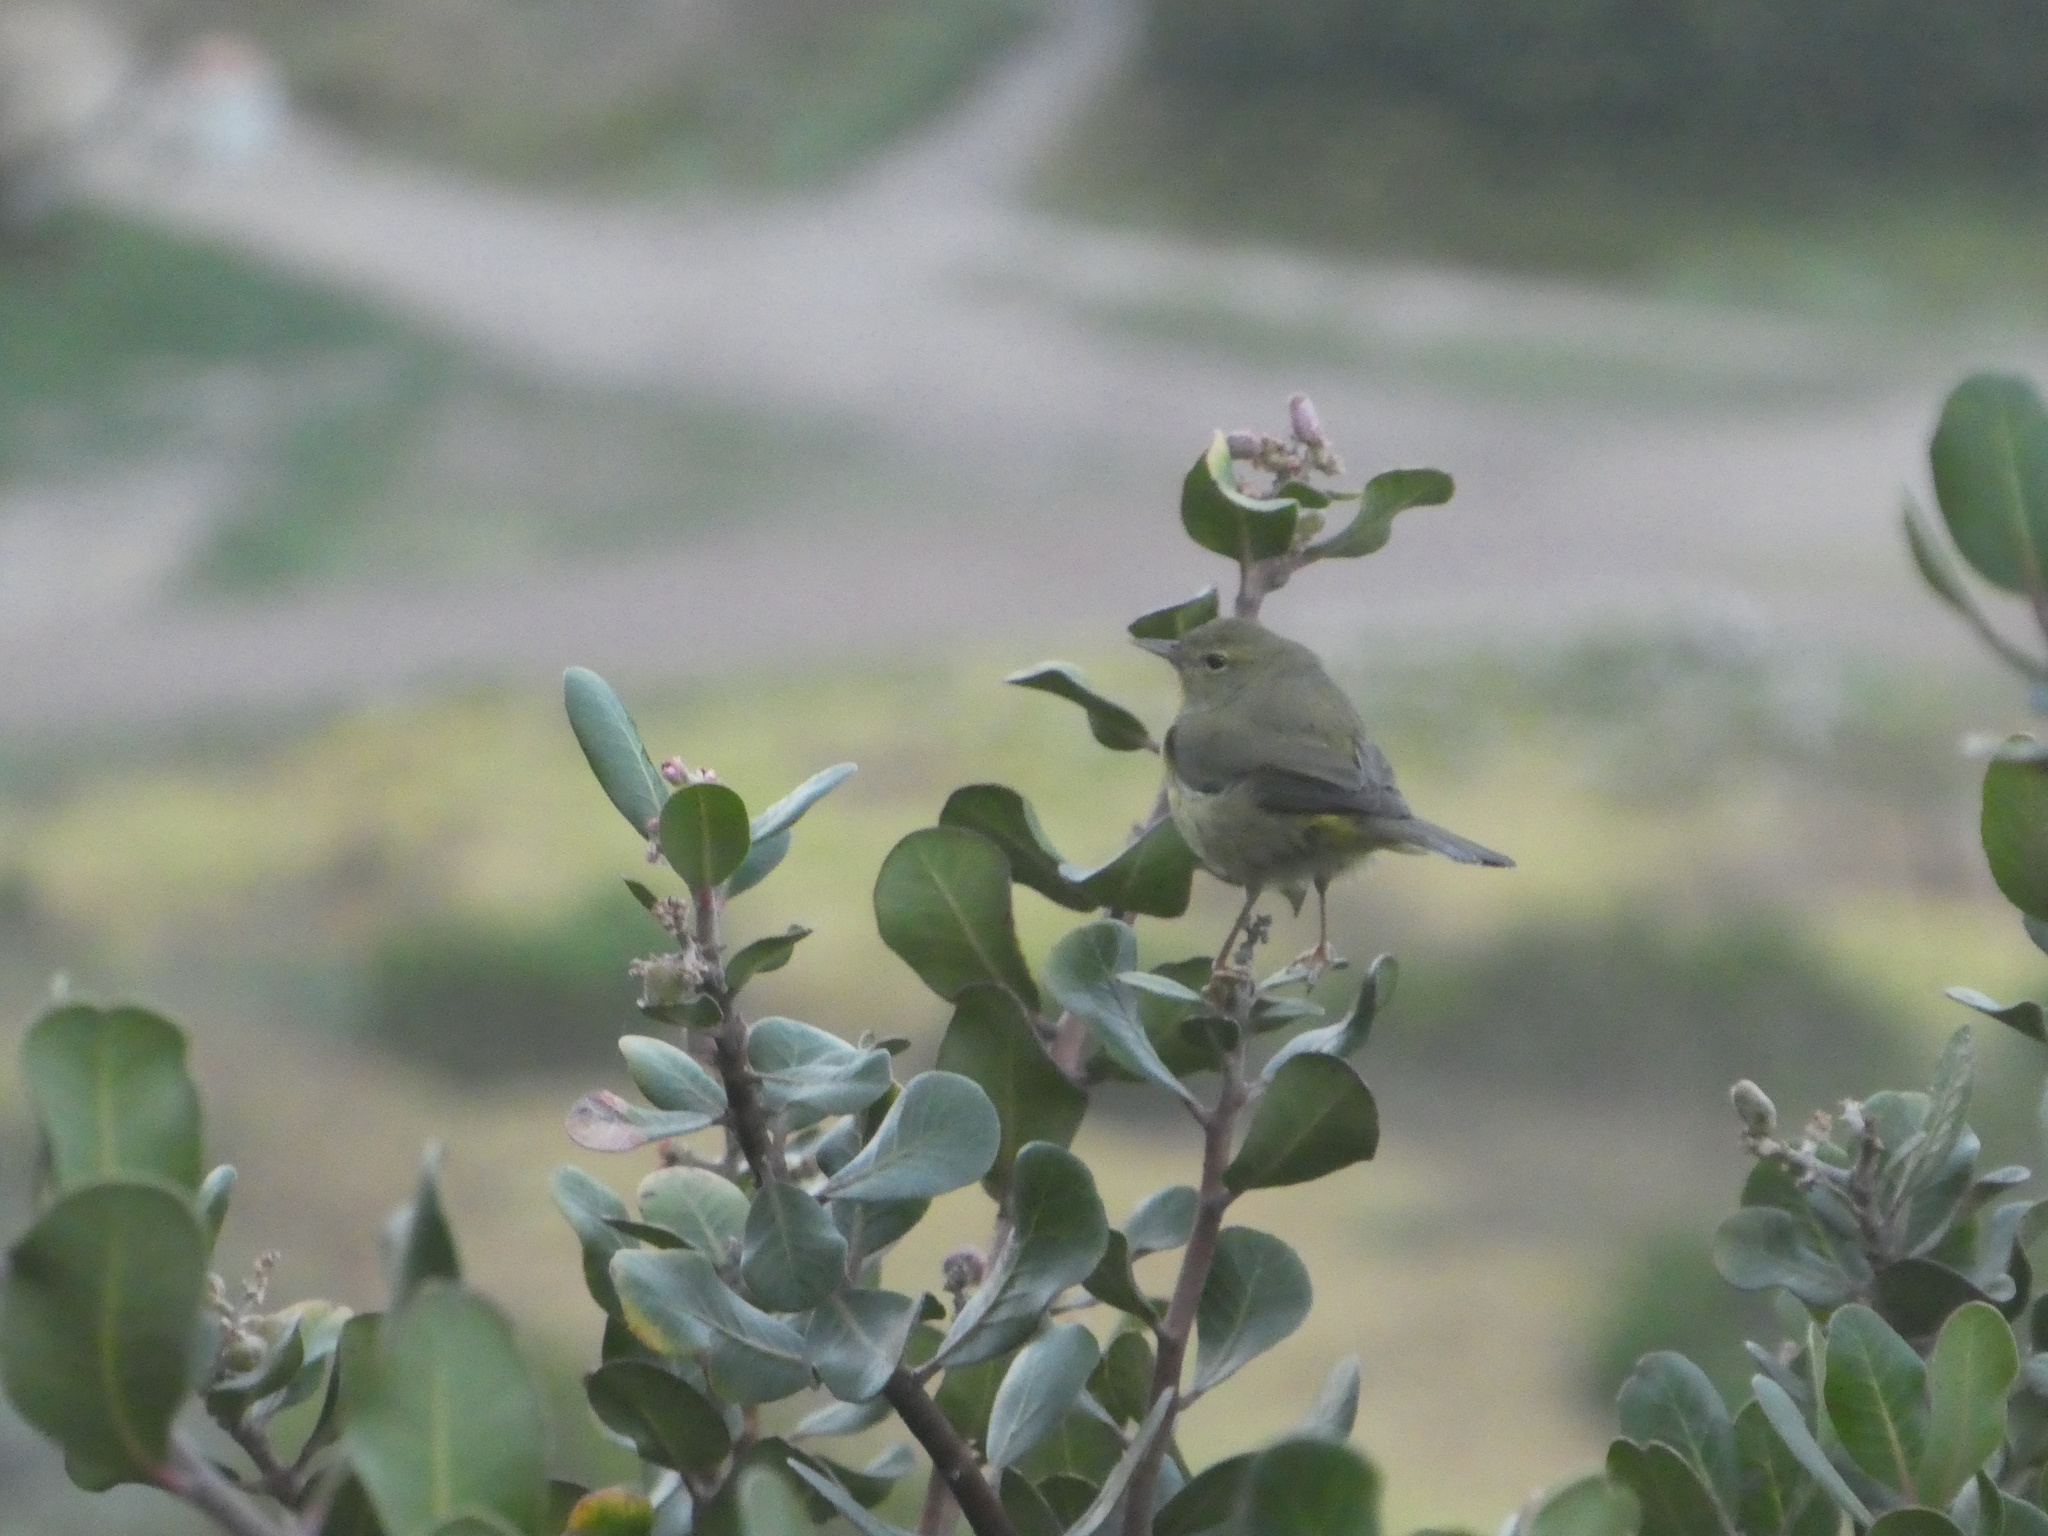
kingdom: Animalia
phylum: Chordata
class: Aves
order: Passeriformes
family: Parulidae
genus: Leiothlypis
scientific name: Leiothlypis celata
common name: Orange-crowned warbler
